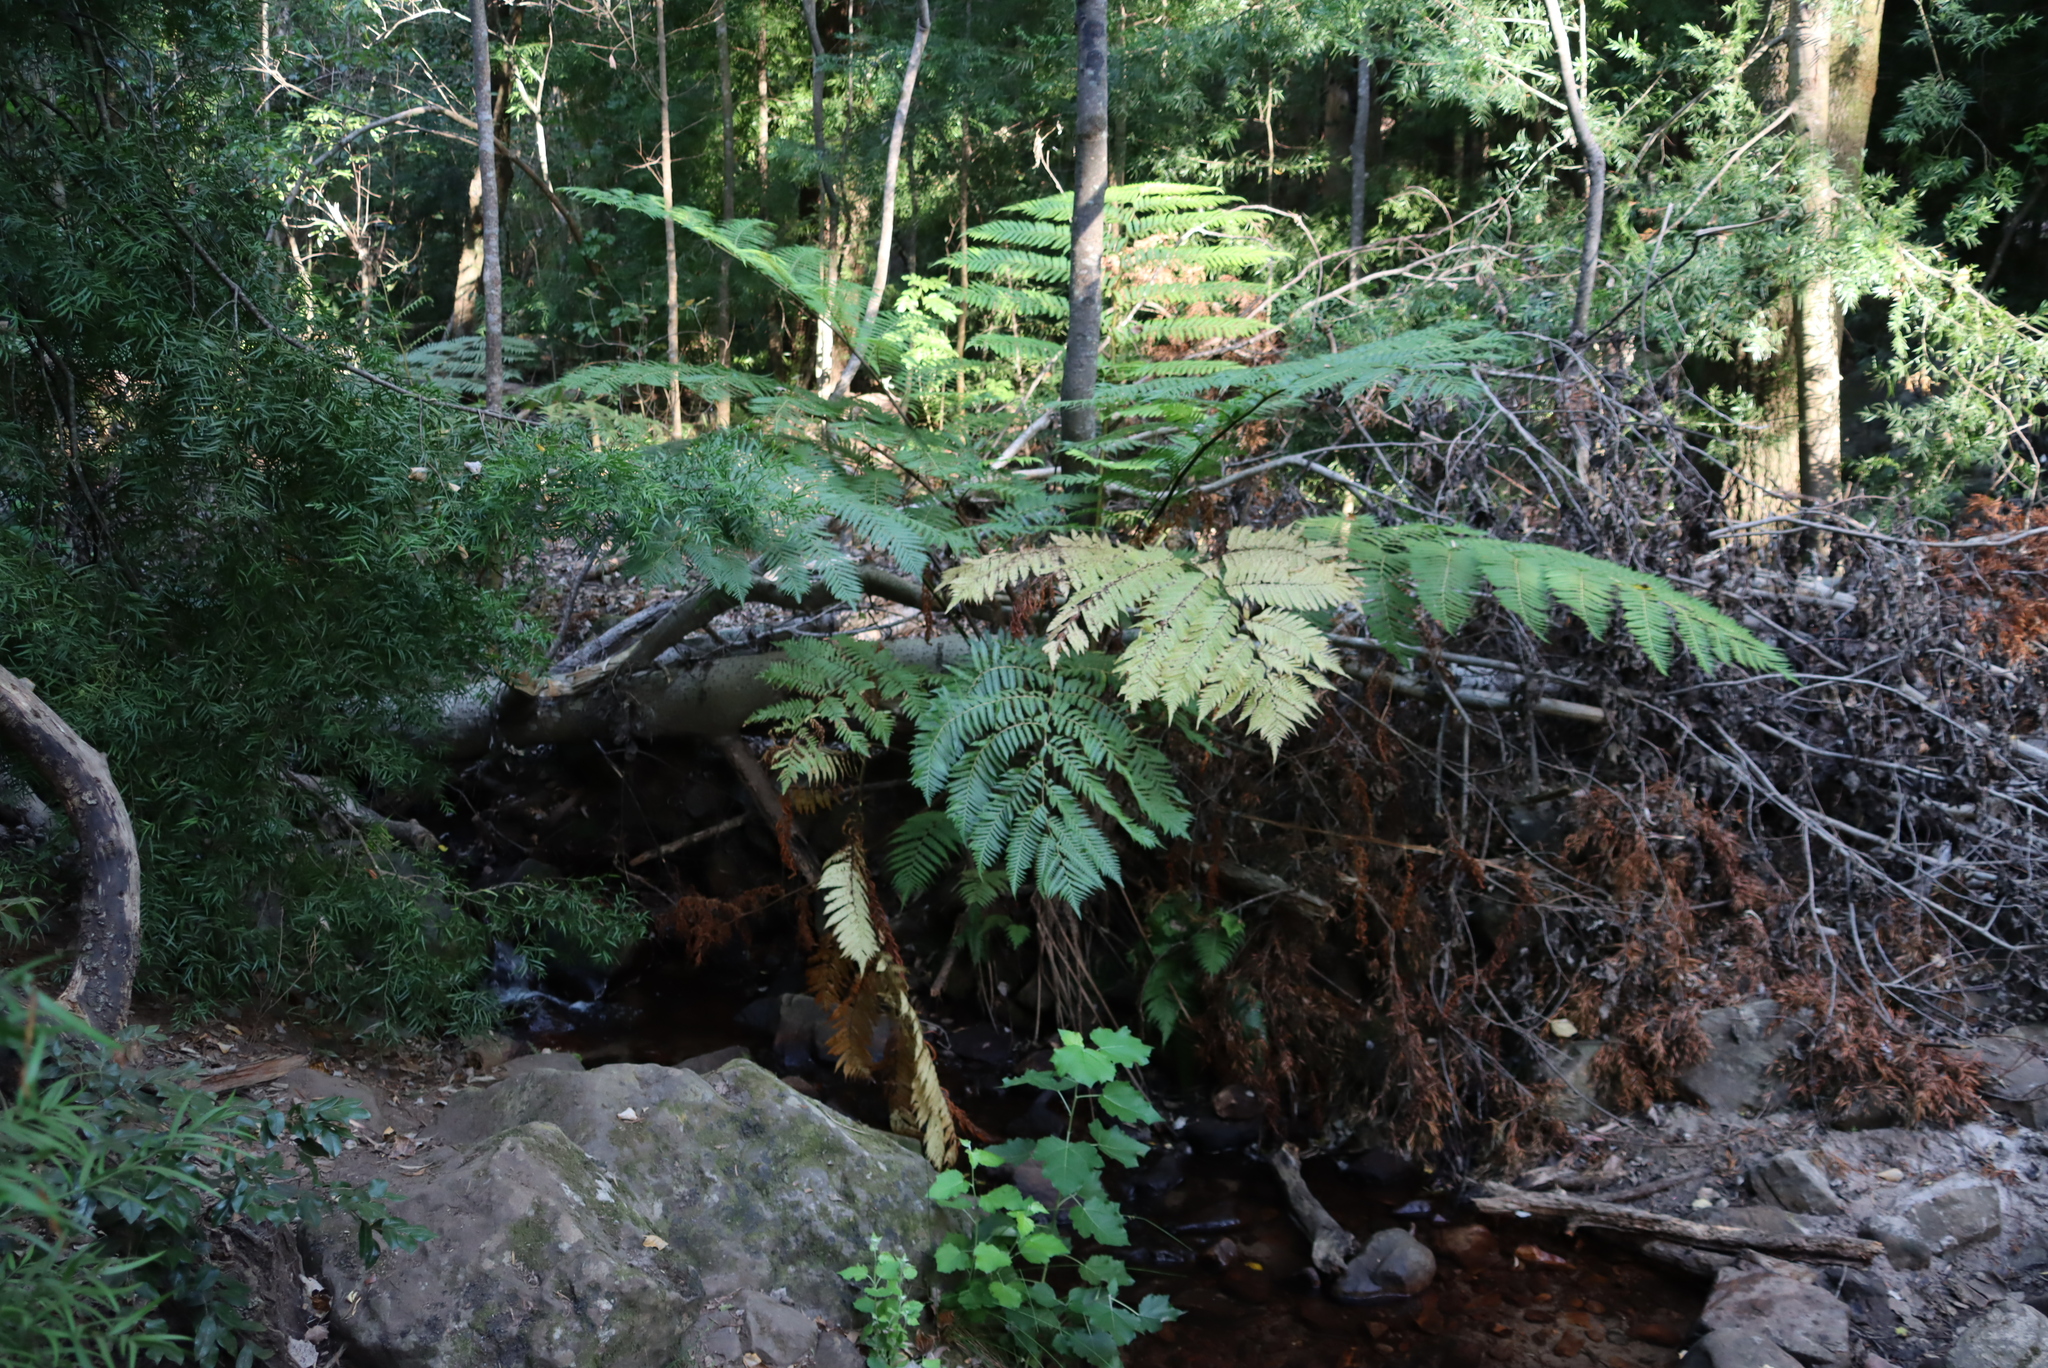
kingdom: Plantae
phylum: Tracheophyta
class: Polypodiopsida
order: Cyatheales
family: Cyatheaceae
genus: Sphaeropteris
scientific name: Sphaeropteris cooperi
